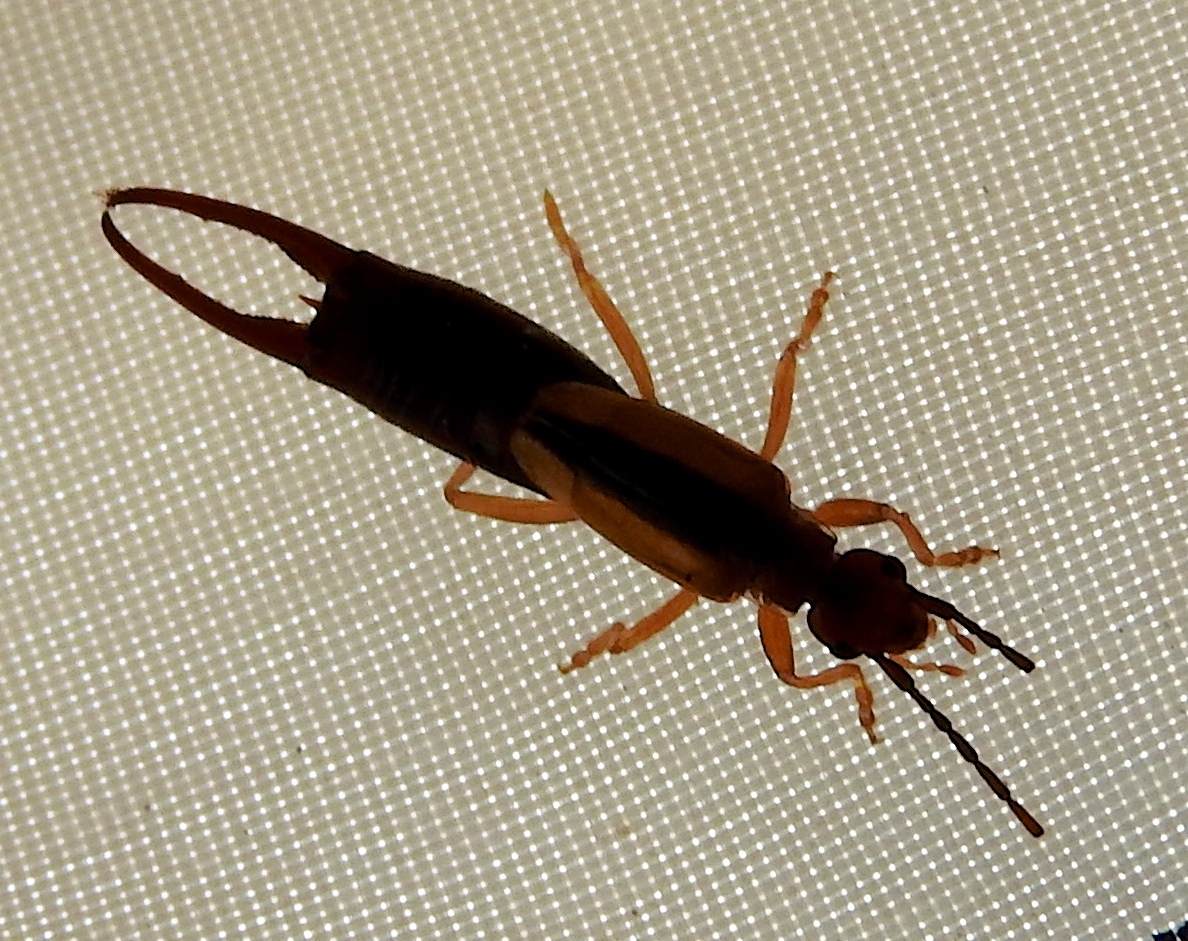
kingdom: Animalia
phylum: Arthropoda
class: Insecta
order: Dermaptera
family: Forficulidae
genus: Doru
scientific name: Doru taeniatum
